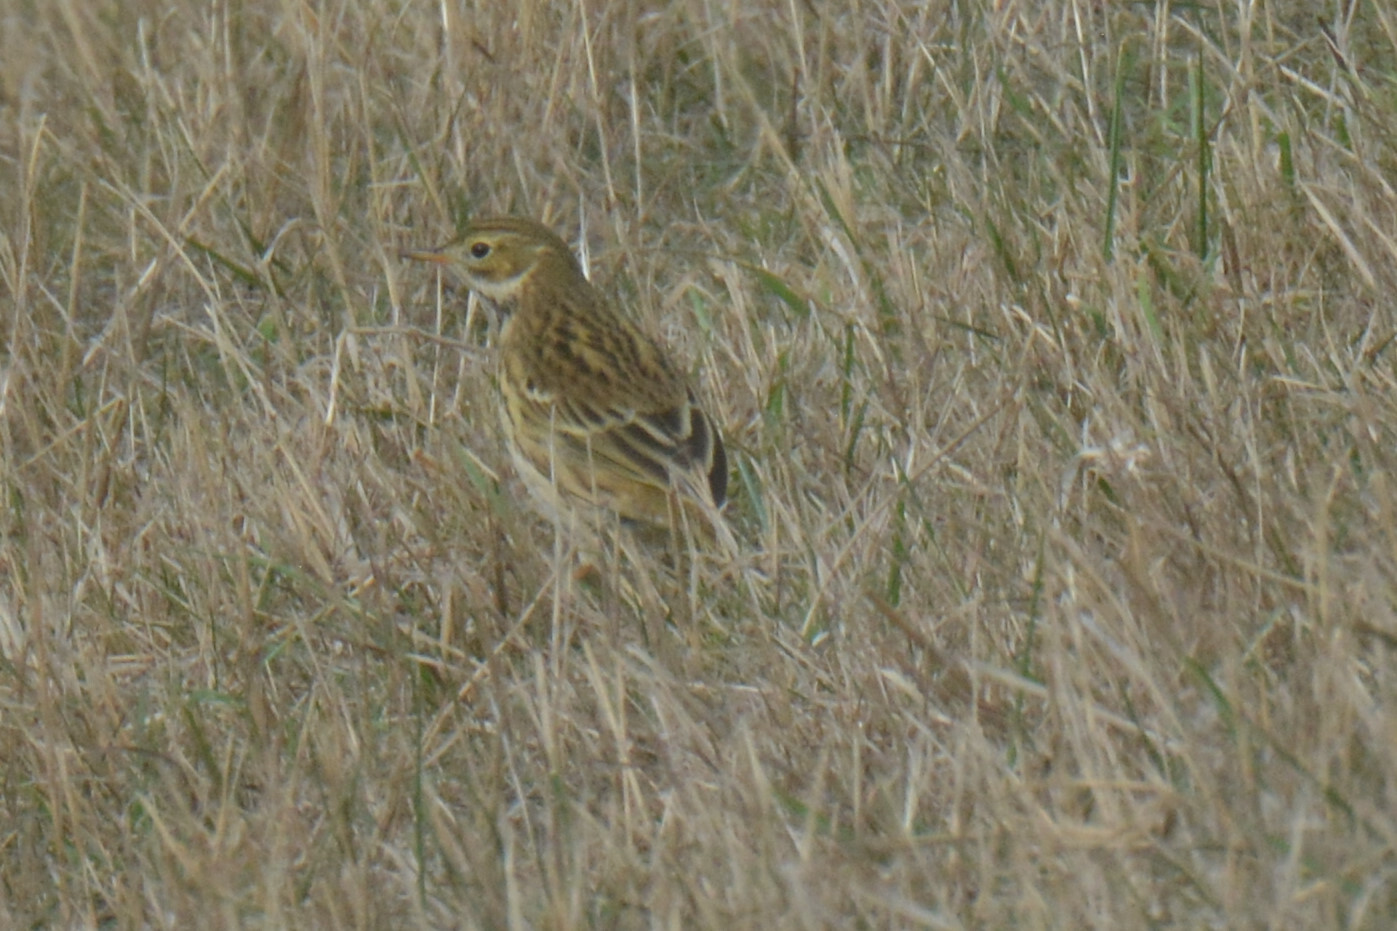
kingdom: Animalia
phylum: Chordata
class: Aves
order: Passeriformes
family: Motacillidae
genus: Anthus
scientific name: Anthus pratensis
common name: Meadow pipit
